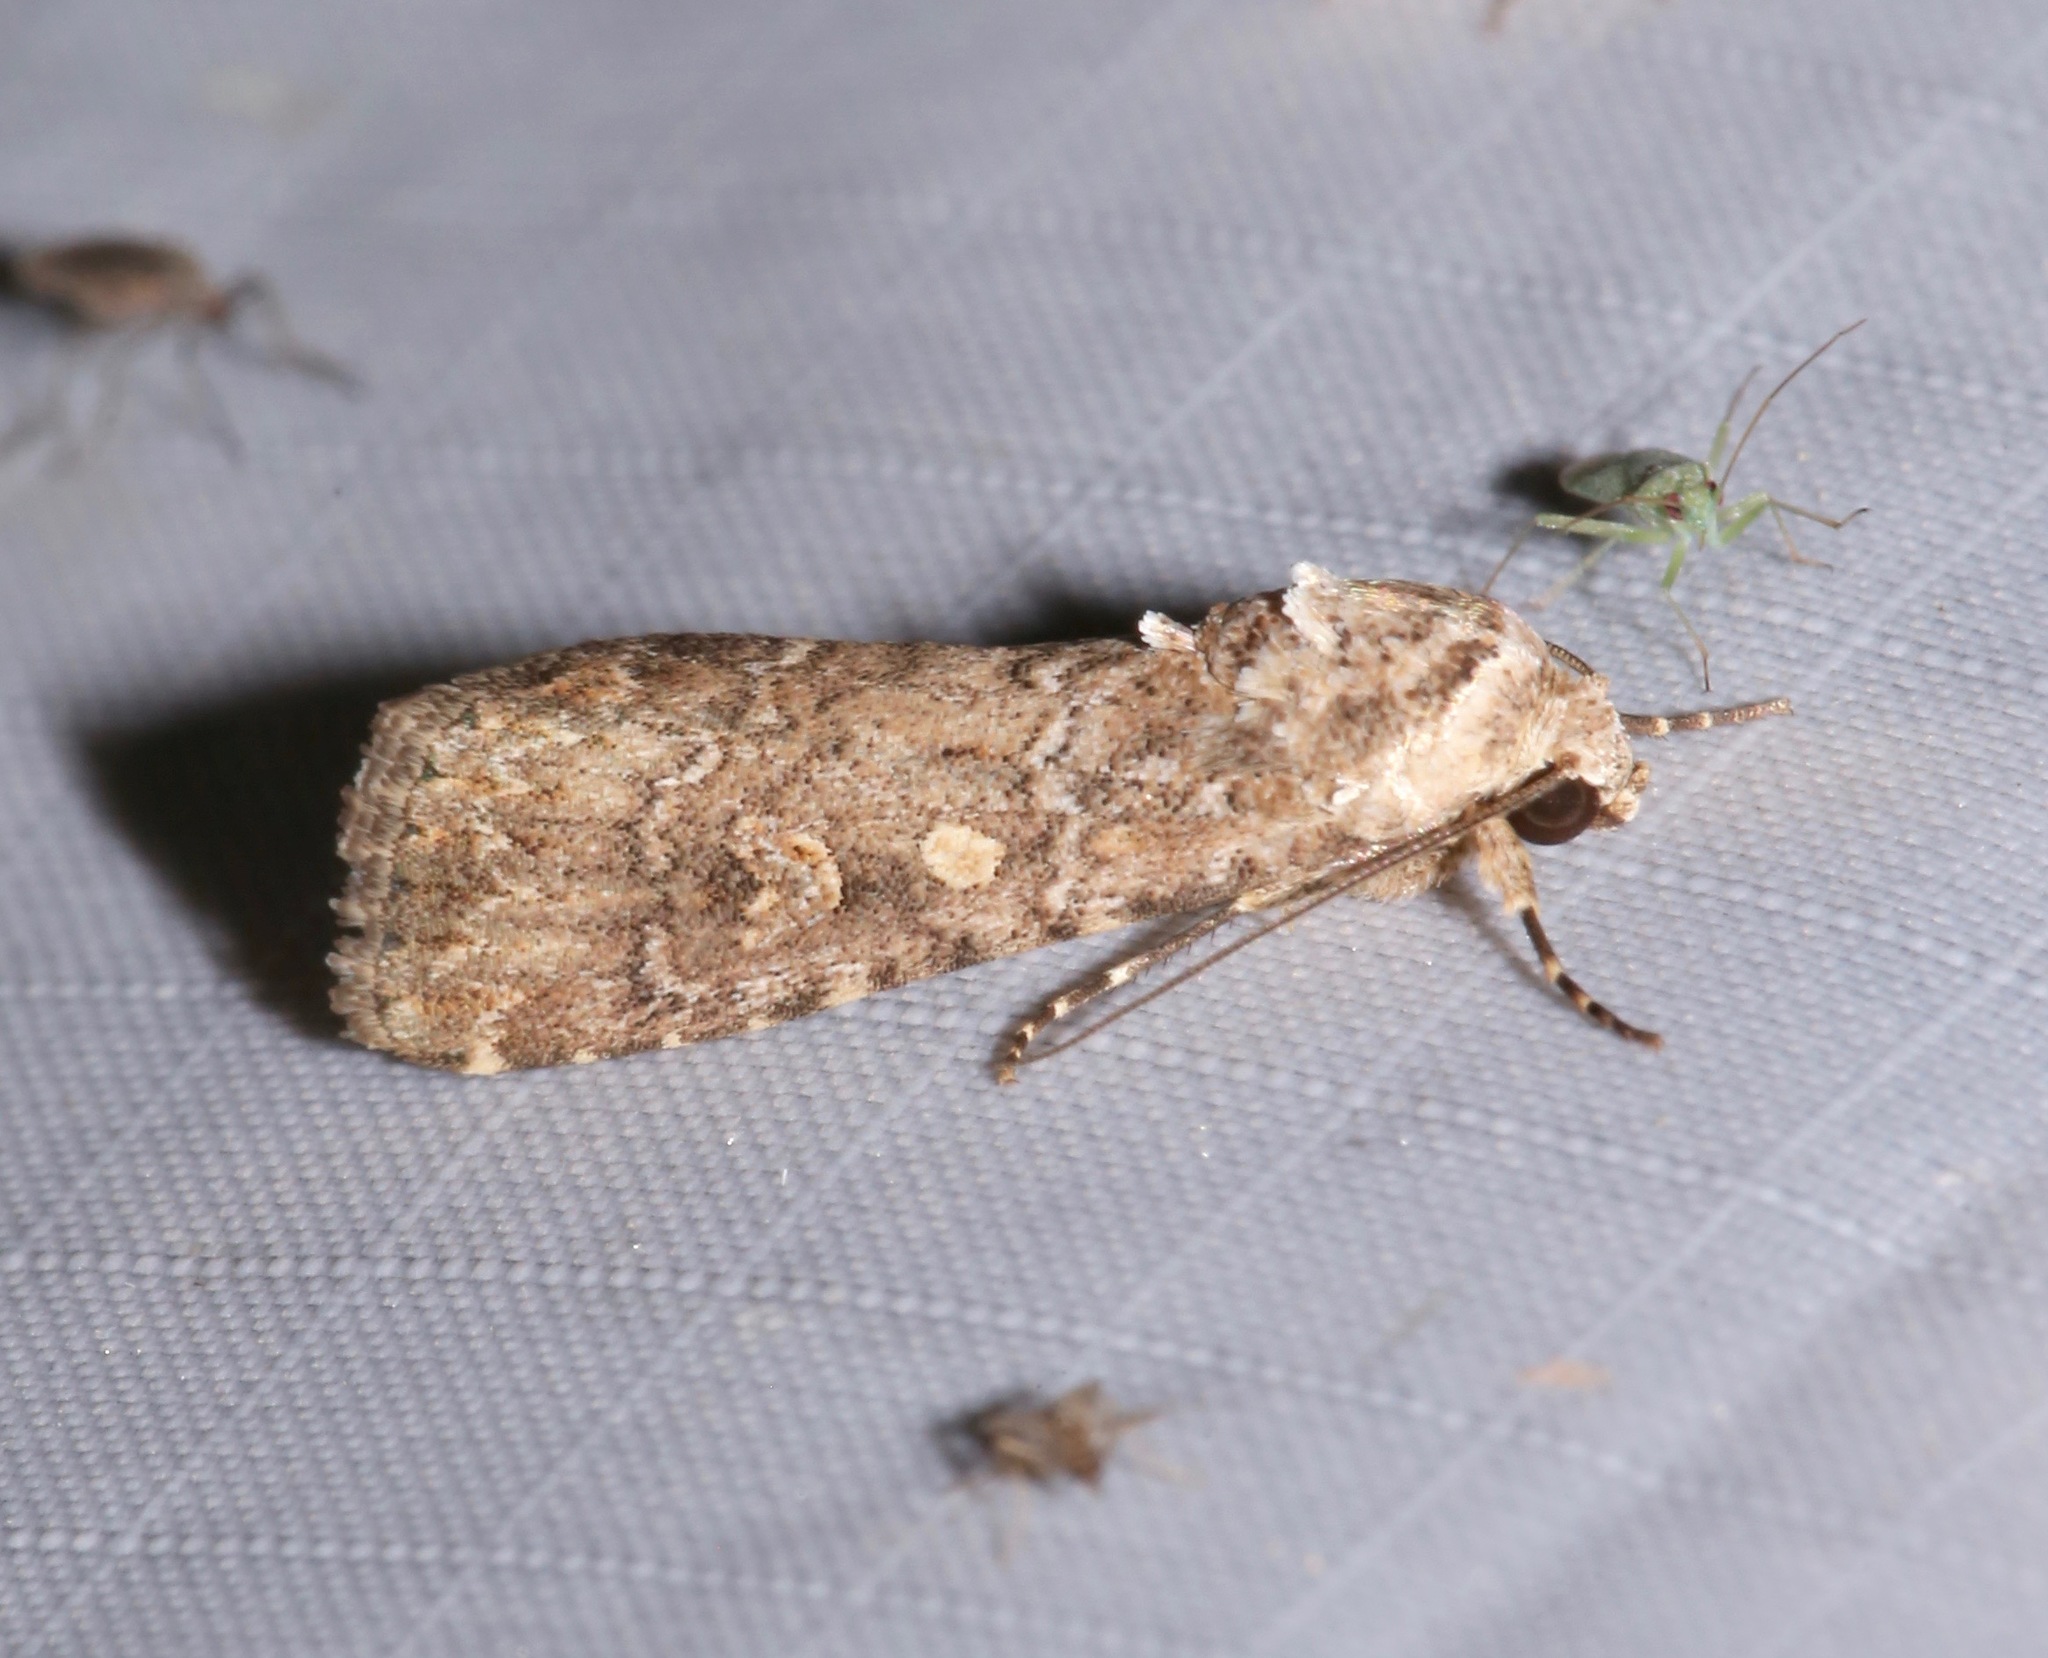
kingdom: Animalia
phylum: Arthropoda
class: Insecta
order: Lepidoptera
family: Noctuidae
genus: Spodoptera
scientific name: Spodoptera exigua
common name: Beet armyworm
